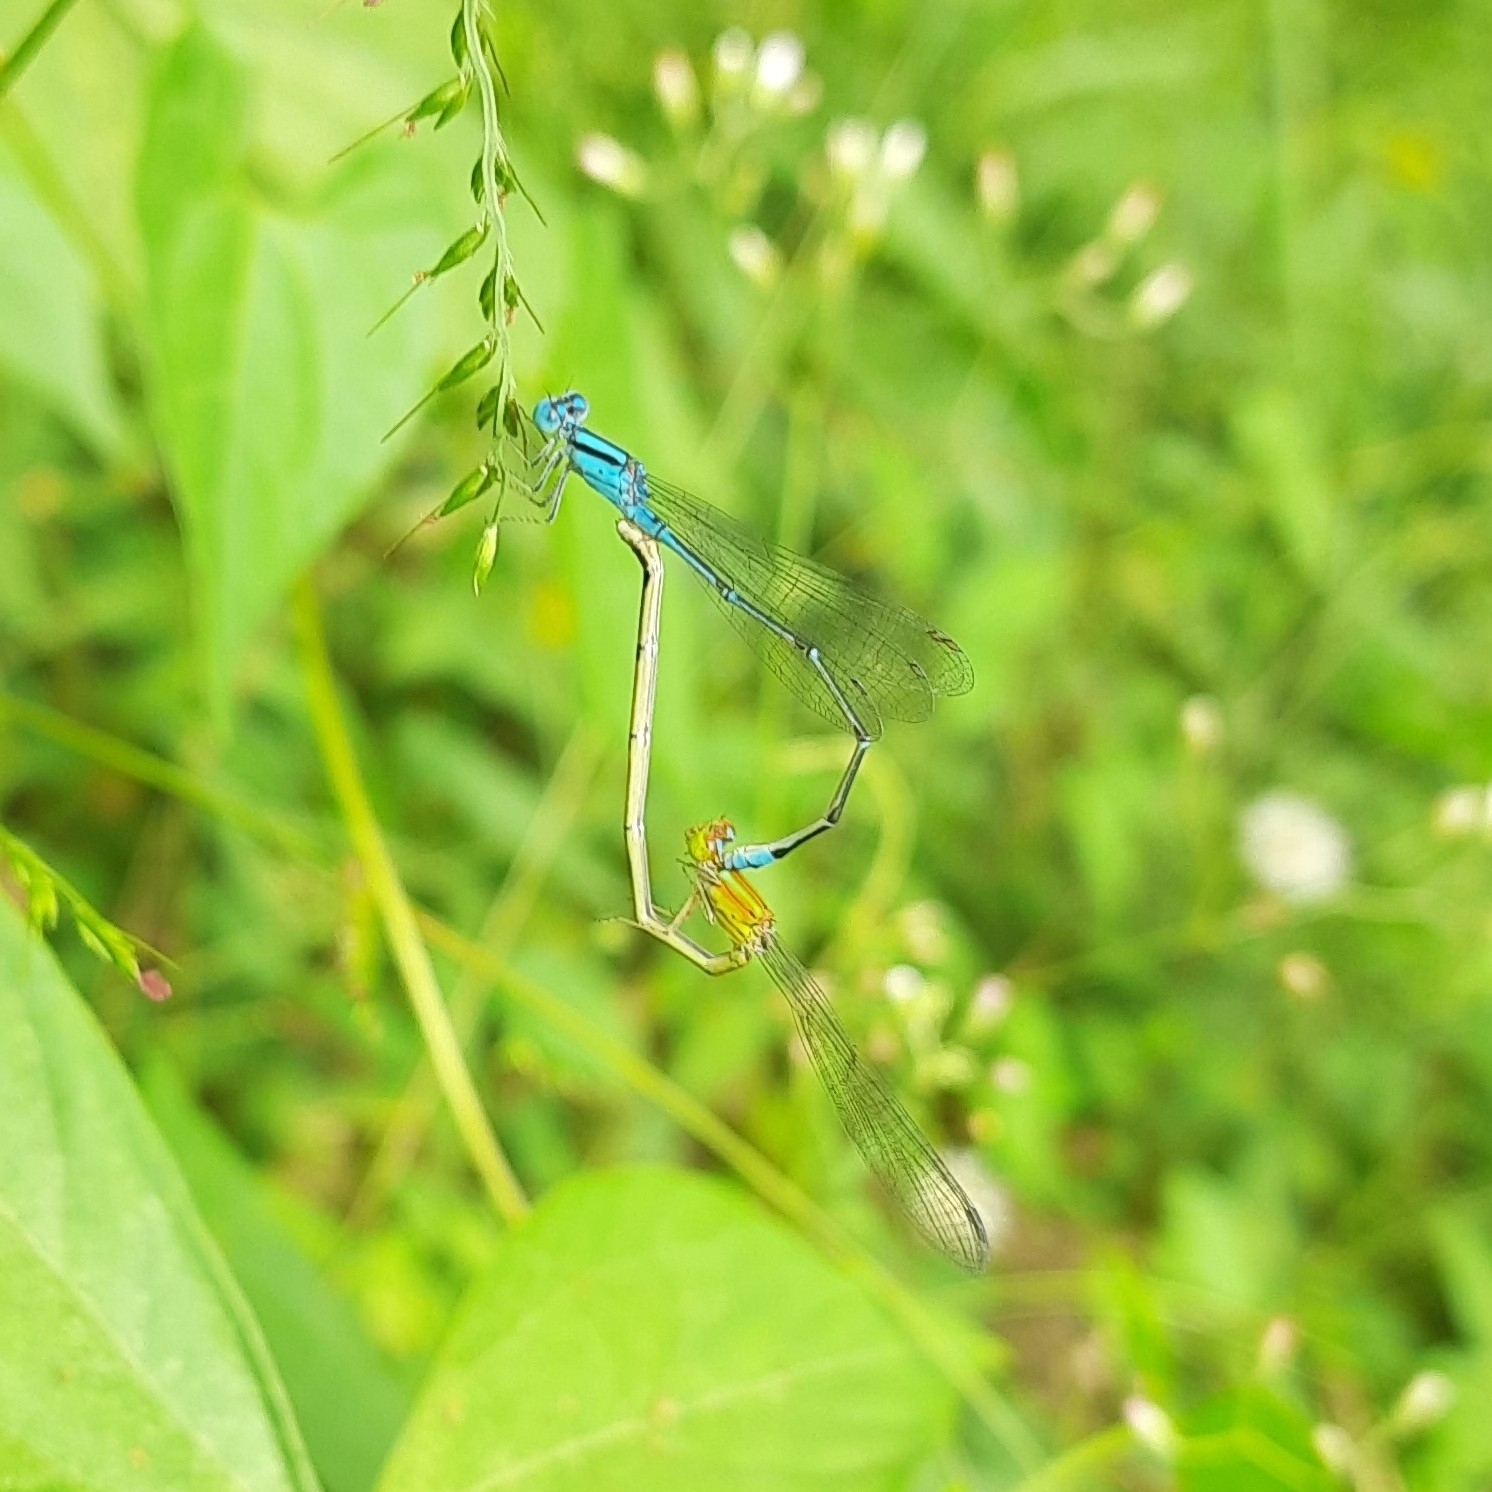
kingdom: Animalia
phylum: Arthropoda
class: Insecta
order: Odonata
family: Coenagrionidae
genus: Pseudagrion
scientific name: Pseudagrion microcephalum
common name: Blue riverdamsel
